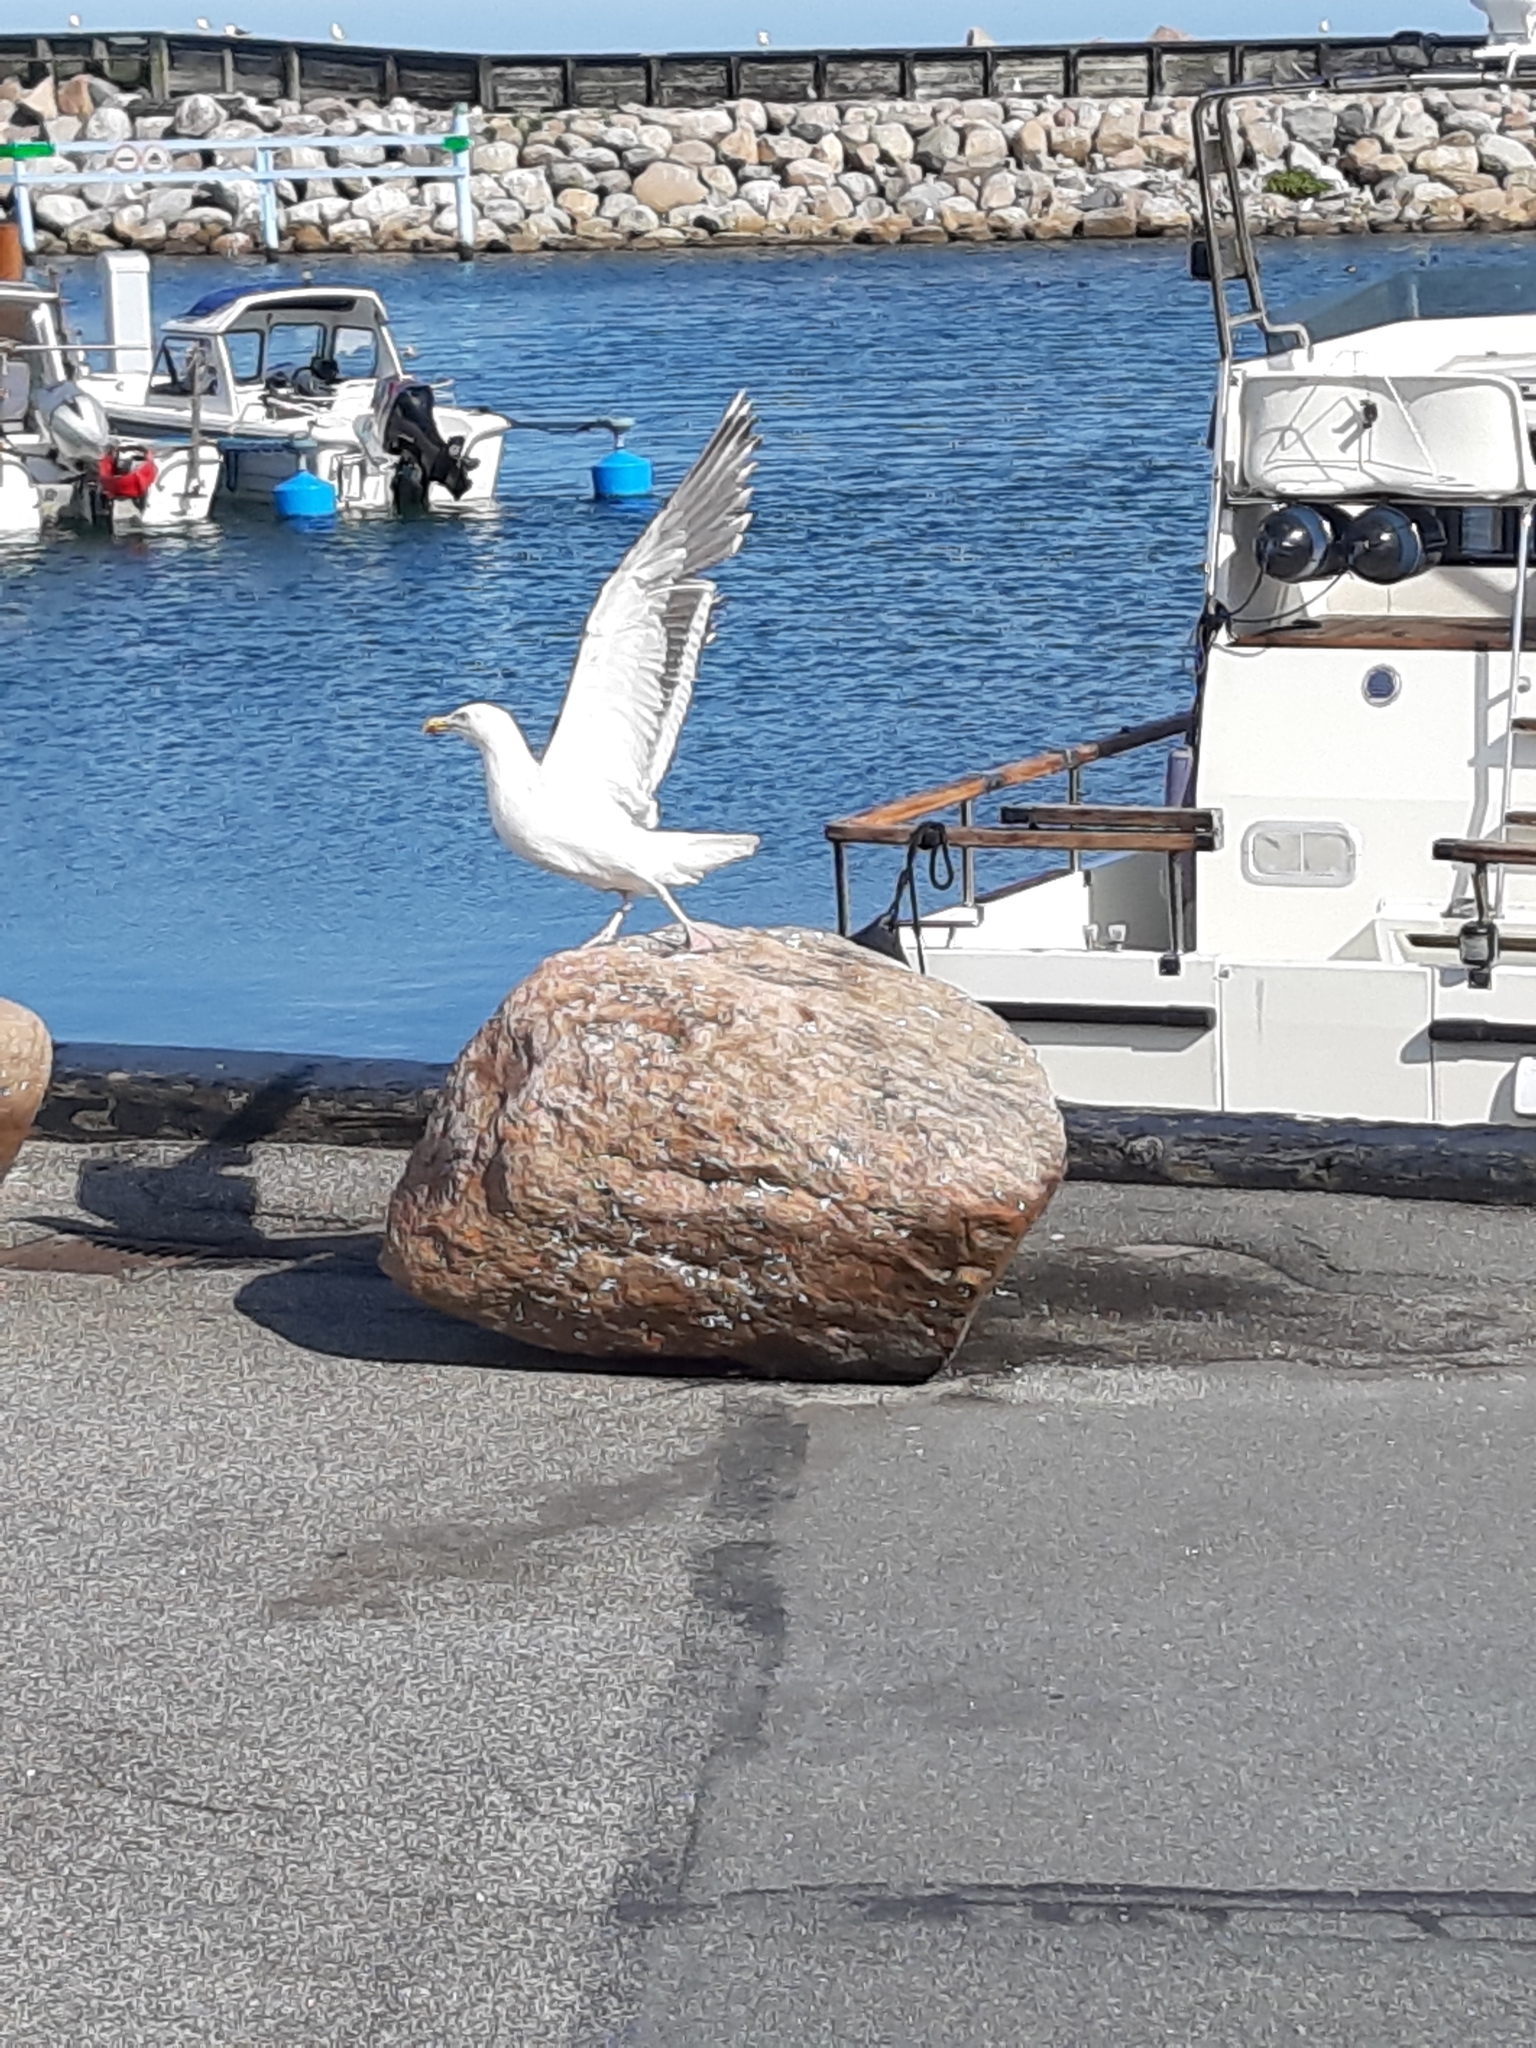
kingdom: Animalia
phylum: Chordata
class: Aves
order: Charadriiformes
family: Laridae
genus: Larus
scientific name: Larus argentatus
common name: Herring gull
